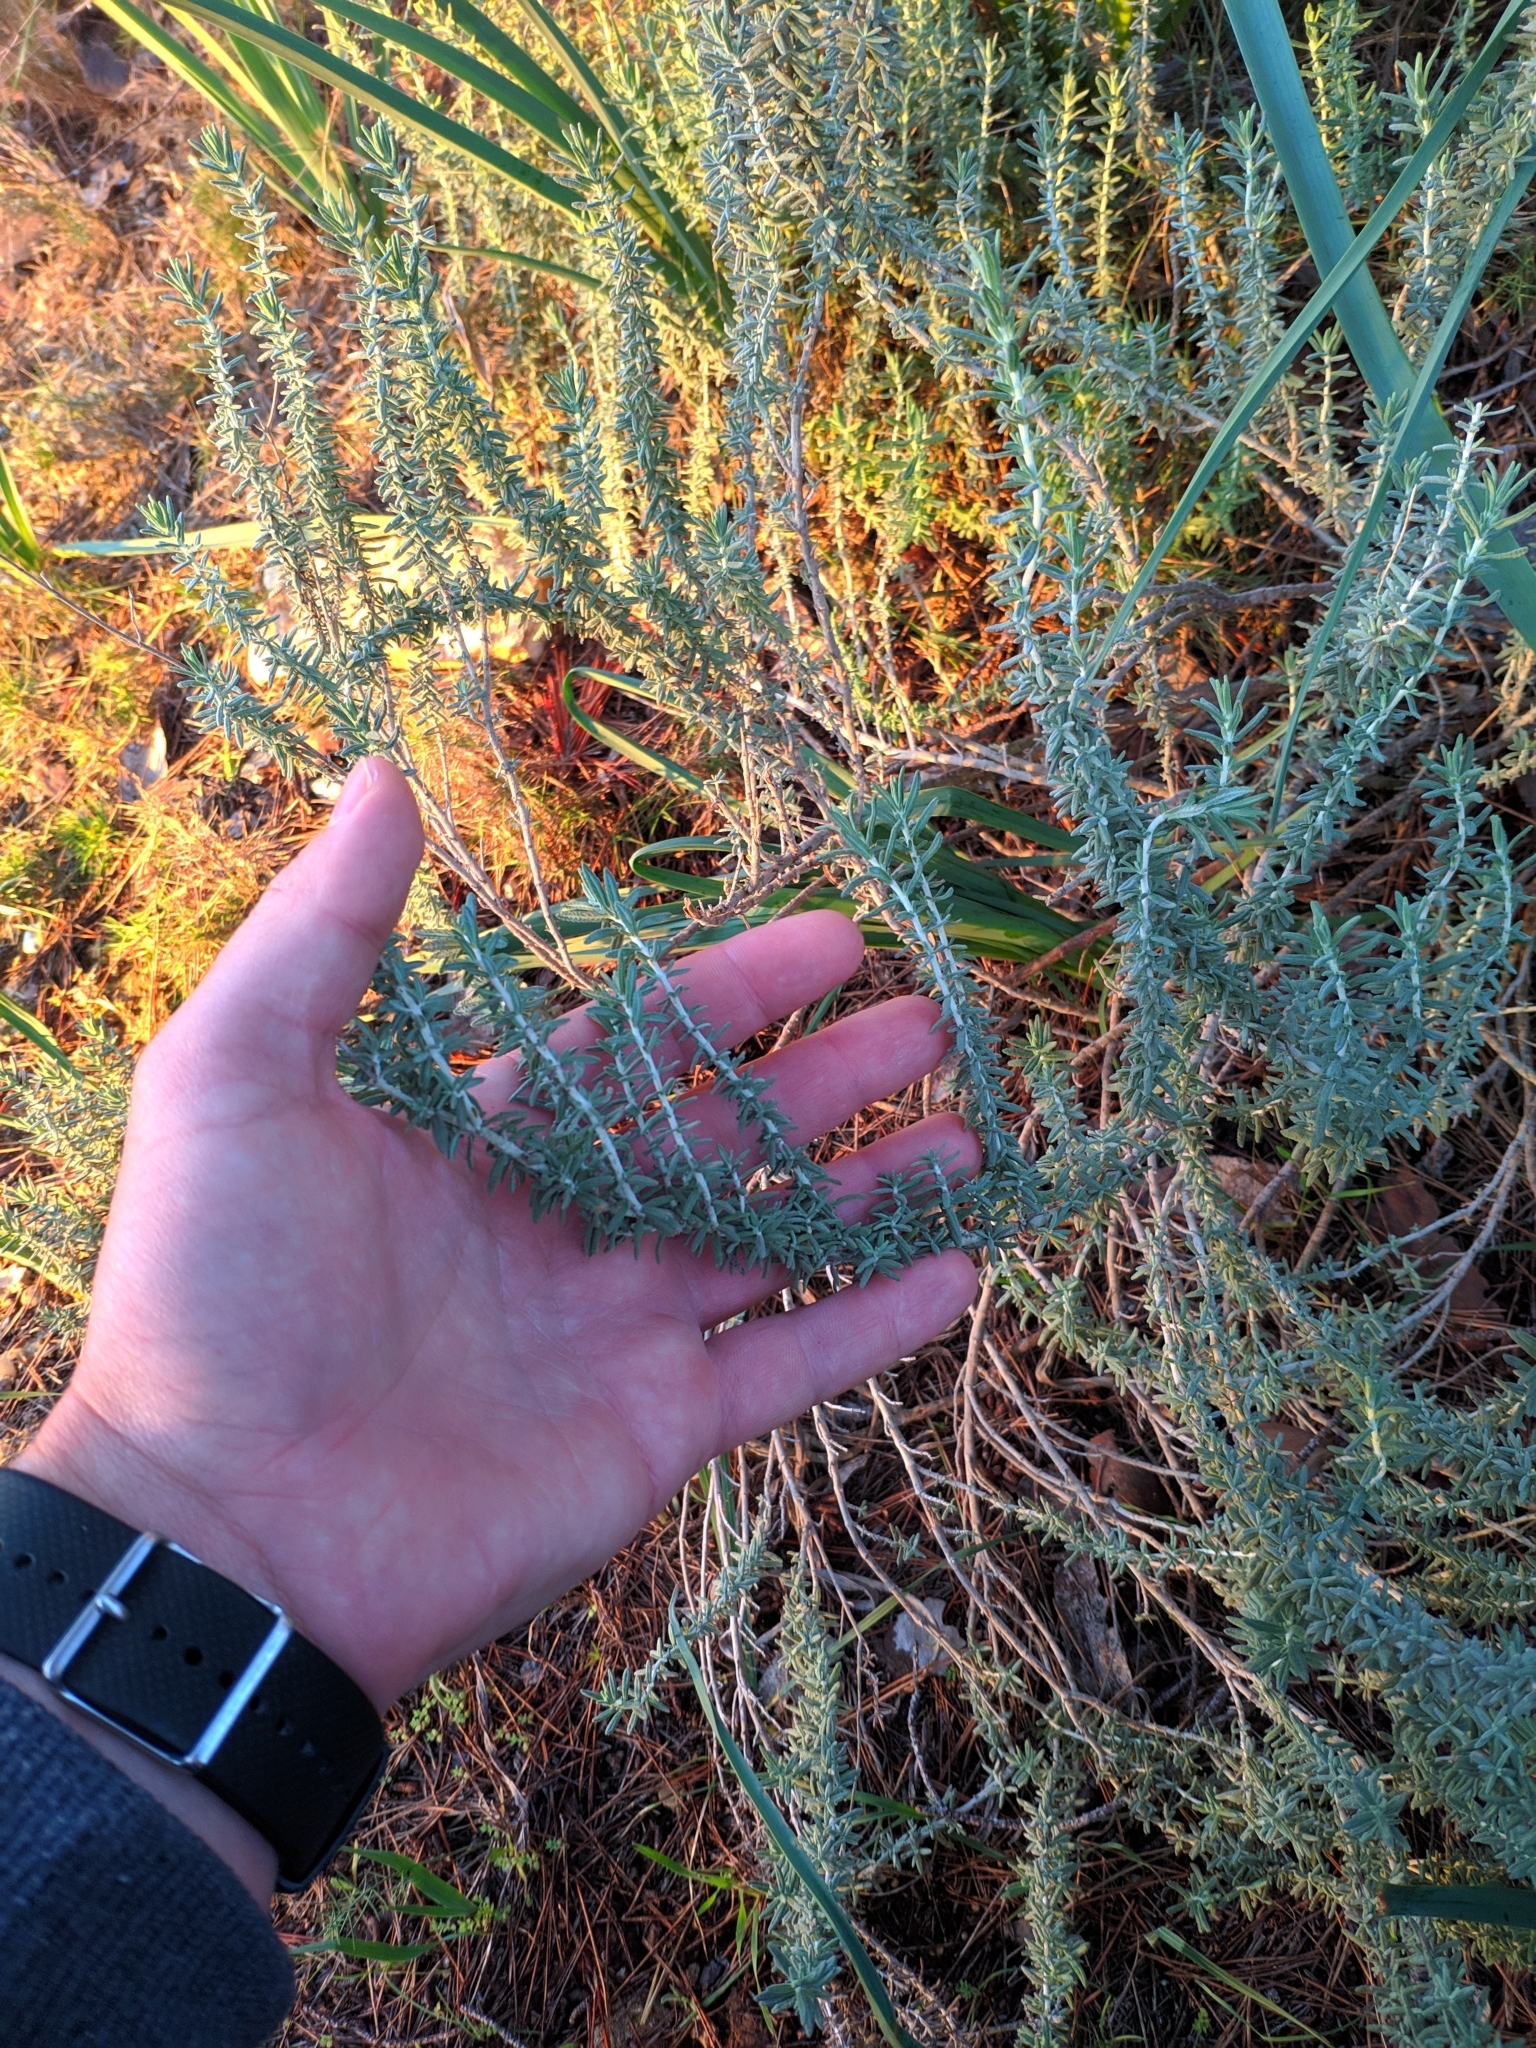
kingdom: Plantae
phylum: Tracheophyta
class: Magnoliopsida
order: Lamiales
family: Lamiaceae
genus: Teucrium
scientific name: Teucrium capitatum
